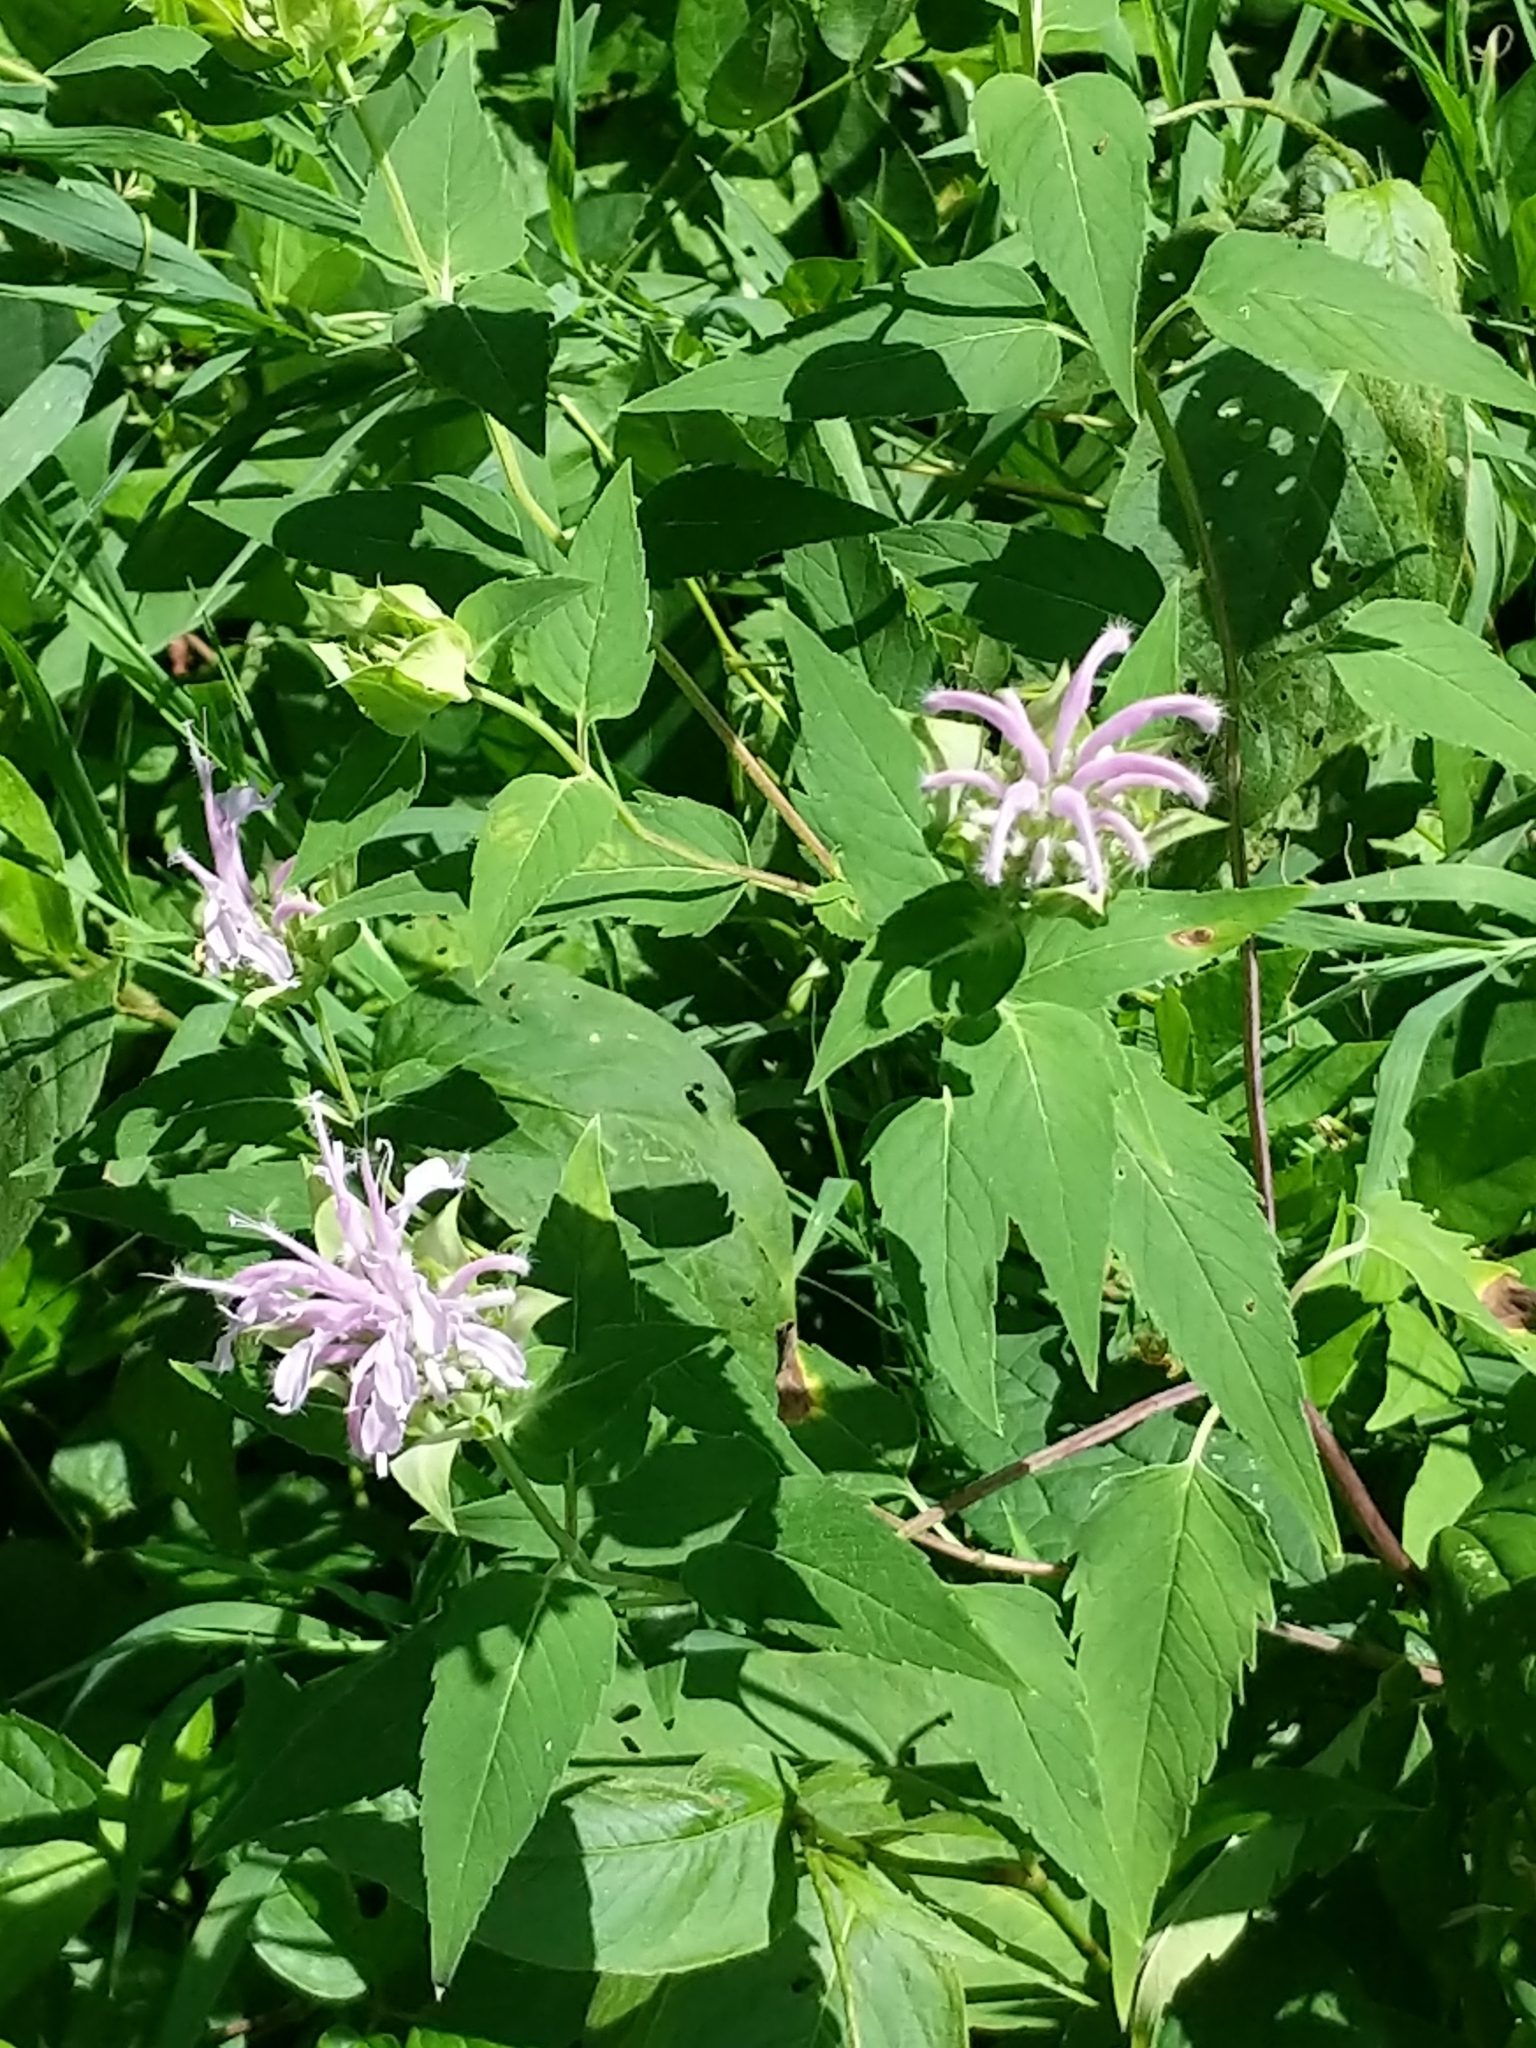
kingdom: Plantae
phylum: Tracheophyta
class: Magnoliopsida
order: Lamiales
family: Lamiaceae
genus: Monarda
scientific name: Monarda fistulosa
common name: Purple beebalm
